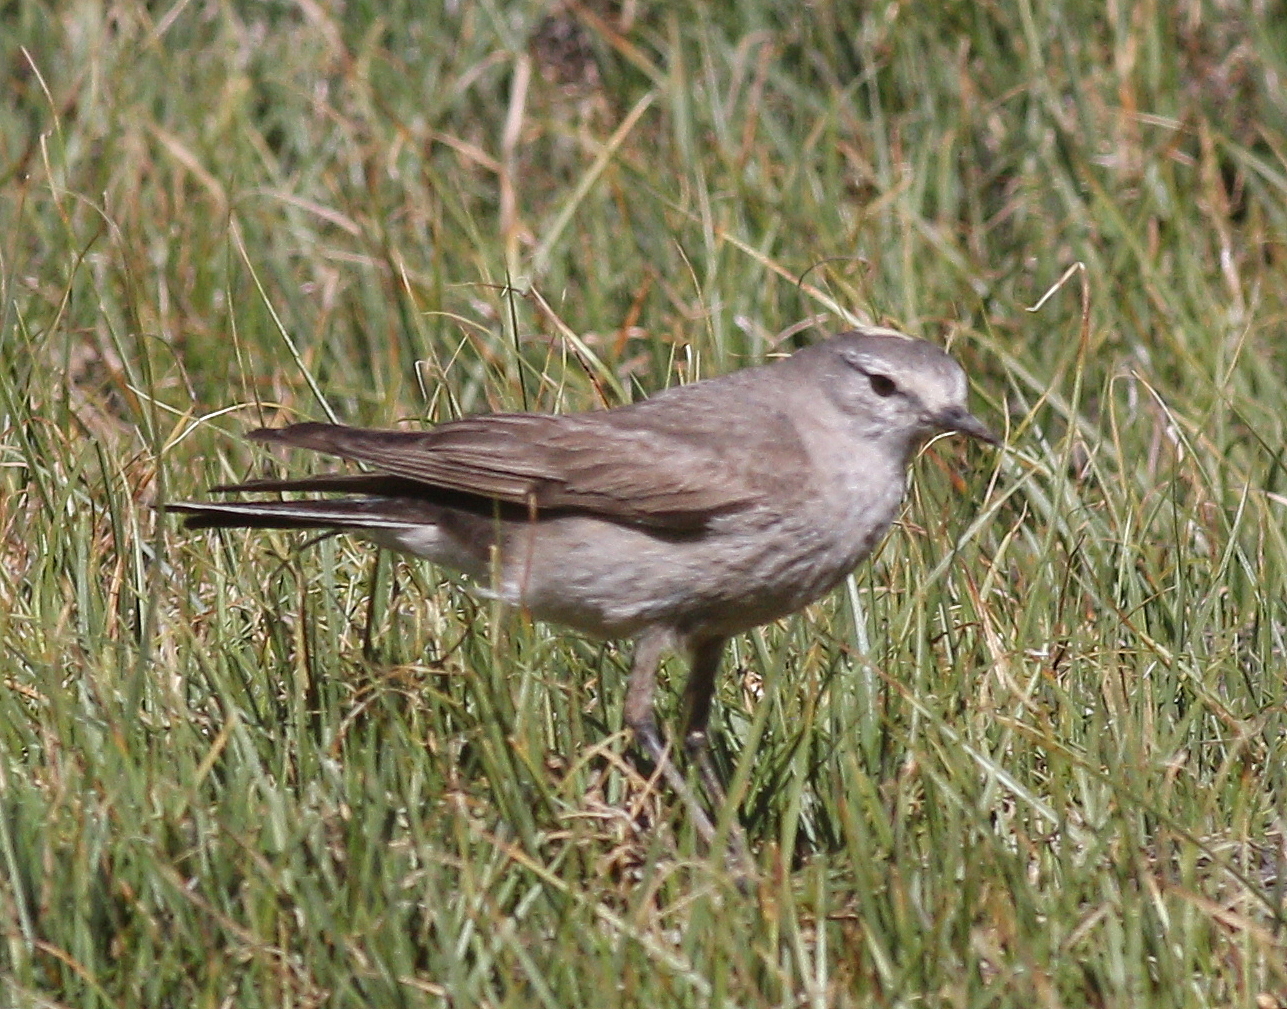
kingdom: Animalia
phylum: Chordata
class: Aves
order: Passeriformes
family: Tyrannidae
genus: Muscisaxicola
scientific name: Muscisaxicola flavinucha
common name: Ochre-naped ground tyrant
